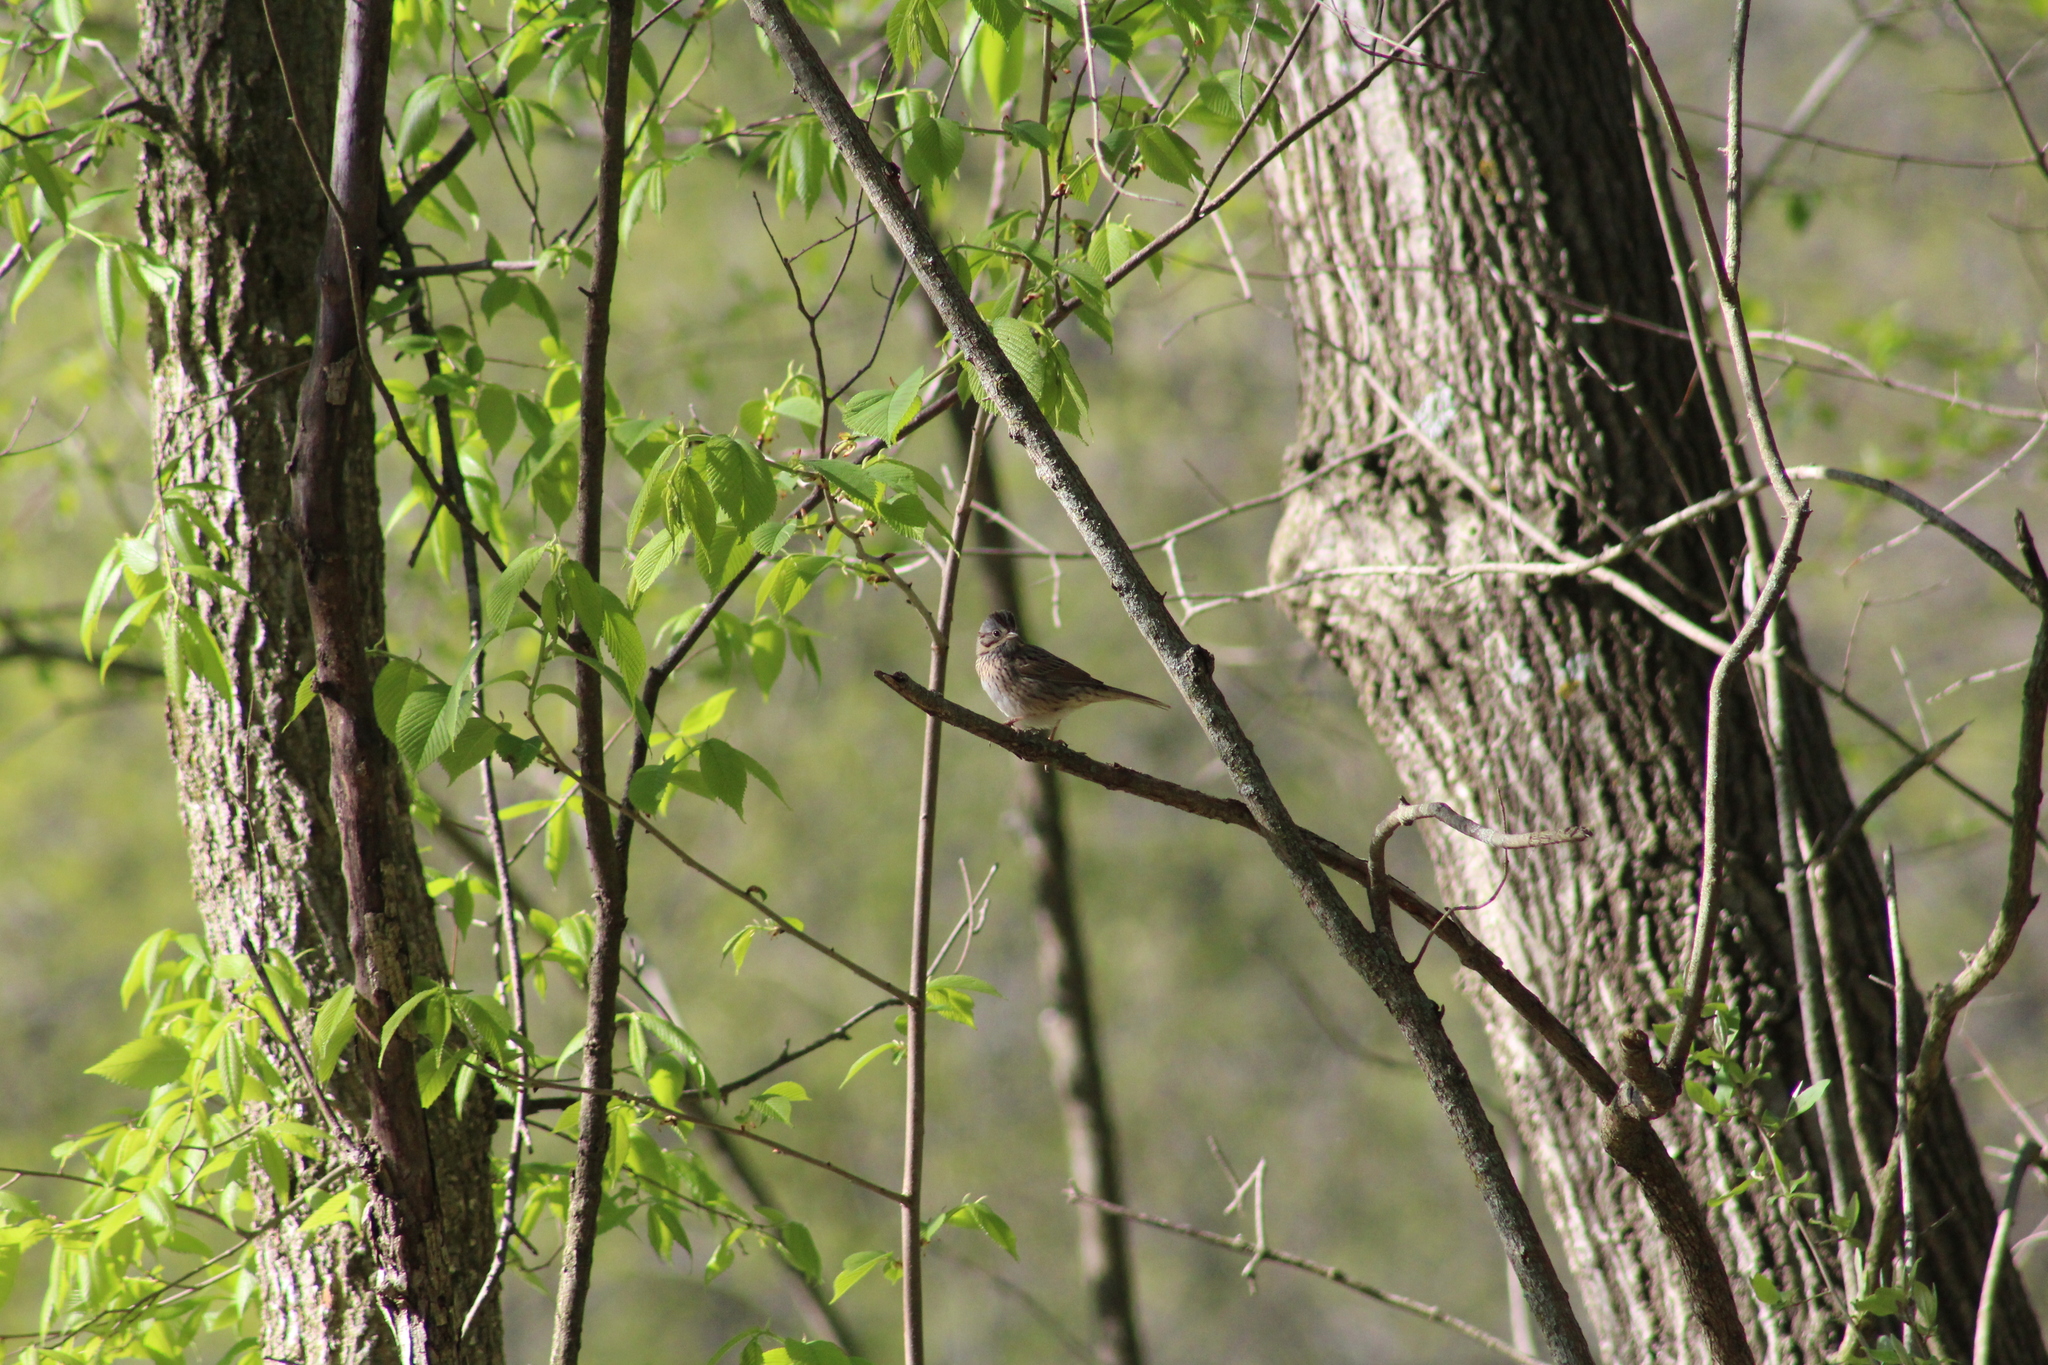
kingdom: Animalia
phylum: Chordata
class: Aves
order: Passeriformes
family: Passerellidae
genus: Melospiza
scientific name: Melospiza lincolnii
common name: Lincoln's sparrow
